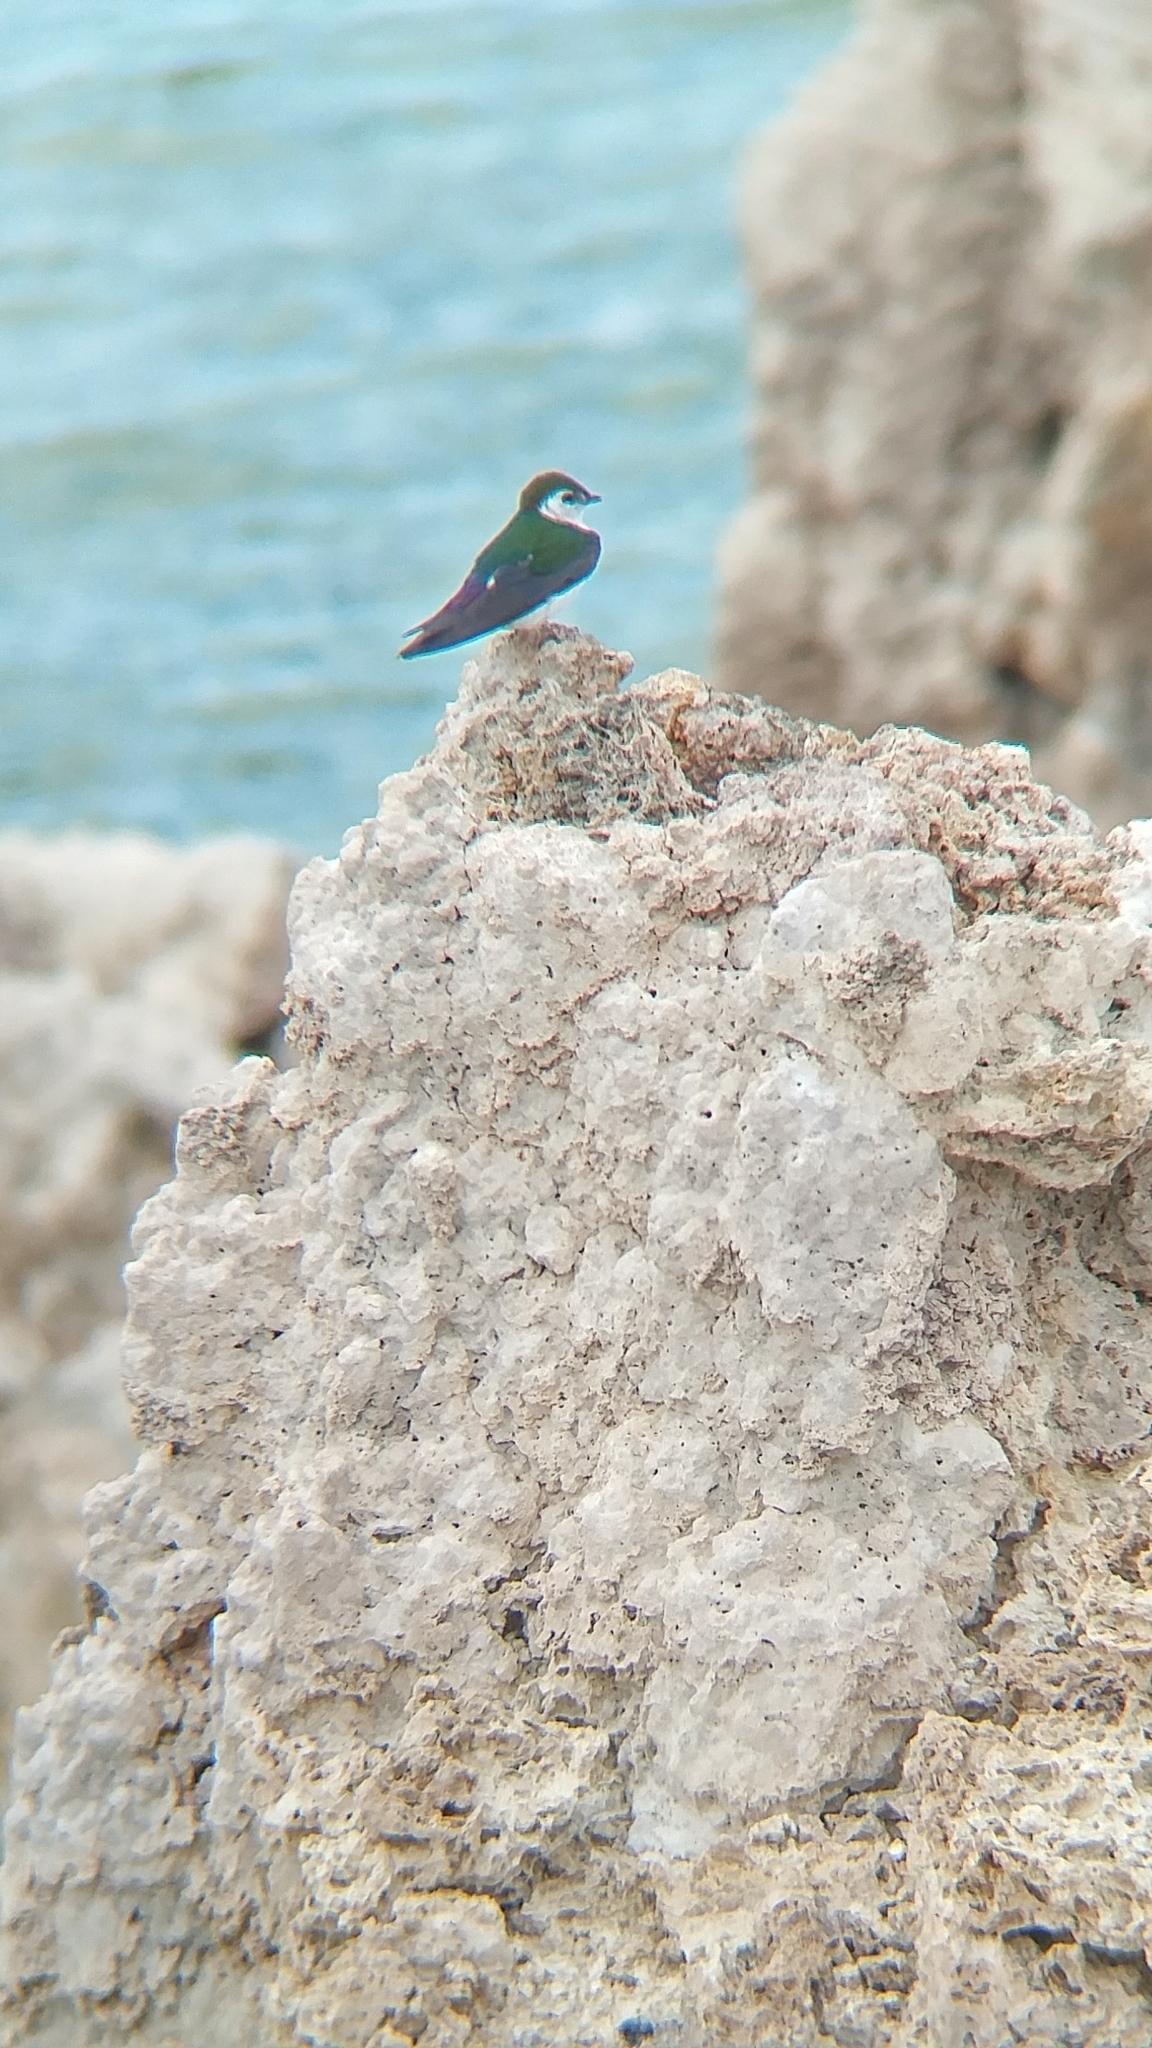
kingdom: Animalia
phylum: Chordata
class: Aves
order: Passeriformes
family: Hirundinidae
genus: Tachycineta
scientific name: Tachycineta thalassina
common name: Violet-green swallow
